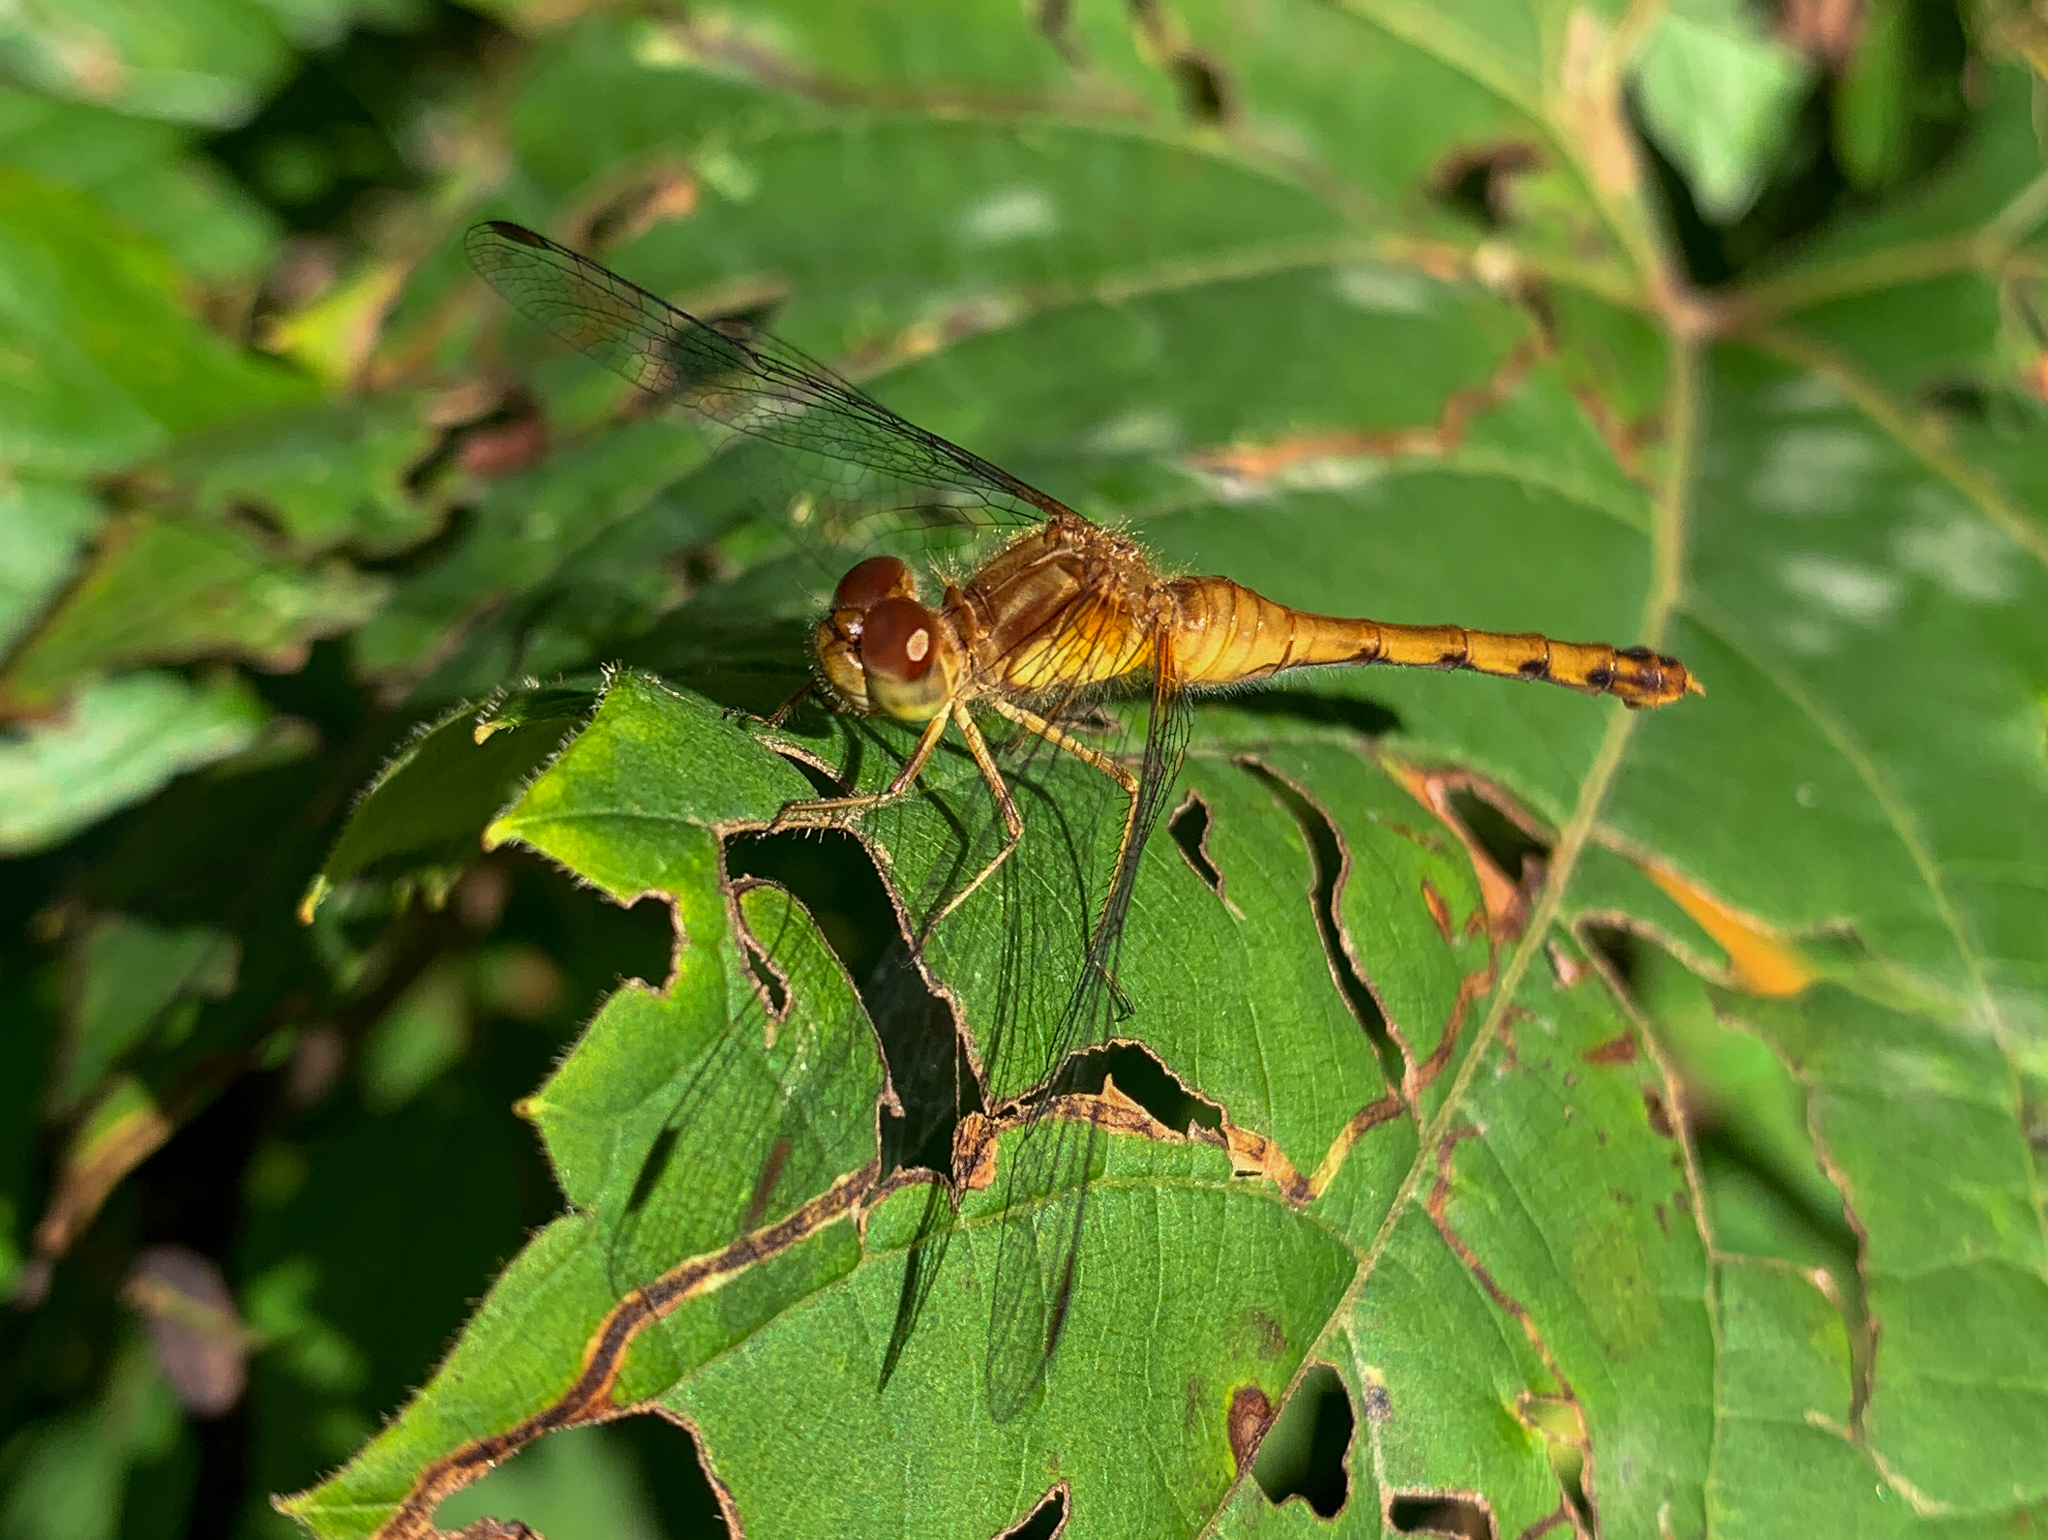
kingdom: Animalia
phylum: Arthropoda
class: Insecta
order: Odonata
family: Libellulidae
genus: Sympetrum
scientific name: Sympetrum vicinum
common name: Autumn meadowhawk
